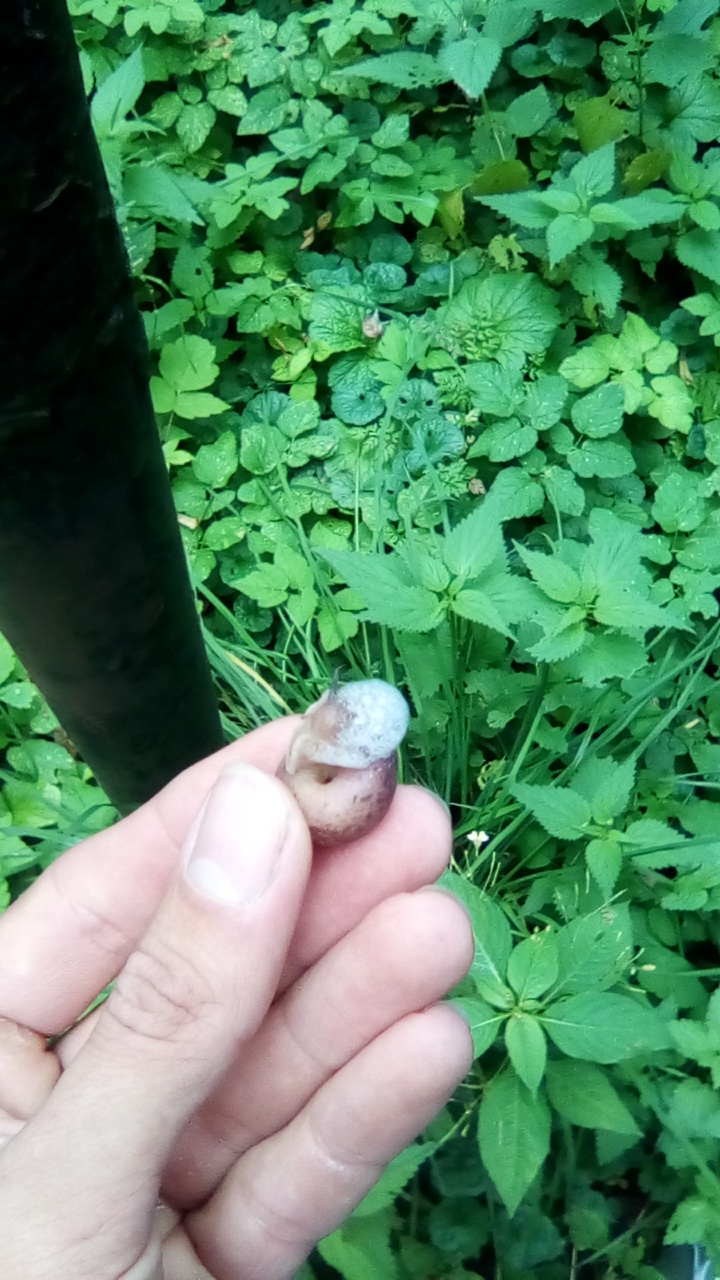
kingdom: Animalia
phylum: Mollusca
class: Gastropoda
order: Stylommatophora
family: Camaenidae
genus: Fruticicola
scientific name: Fruticicola fruticum
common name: Bush snail
